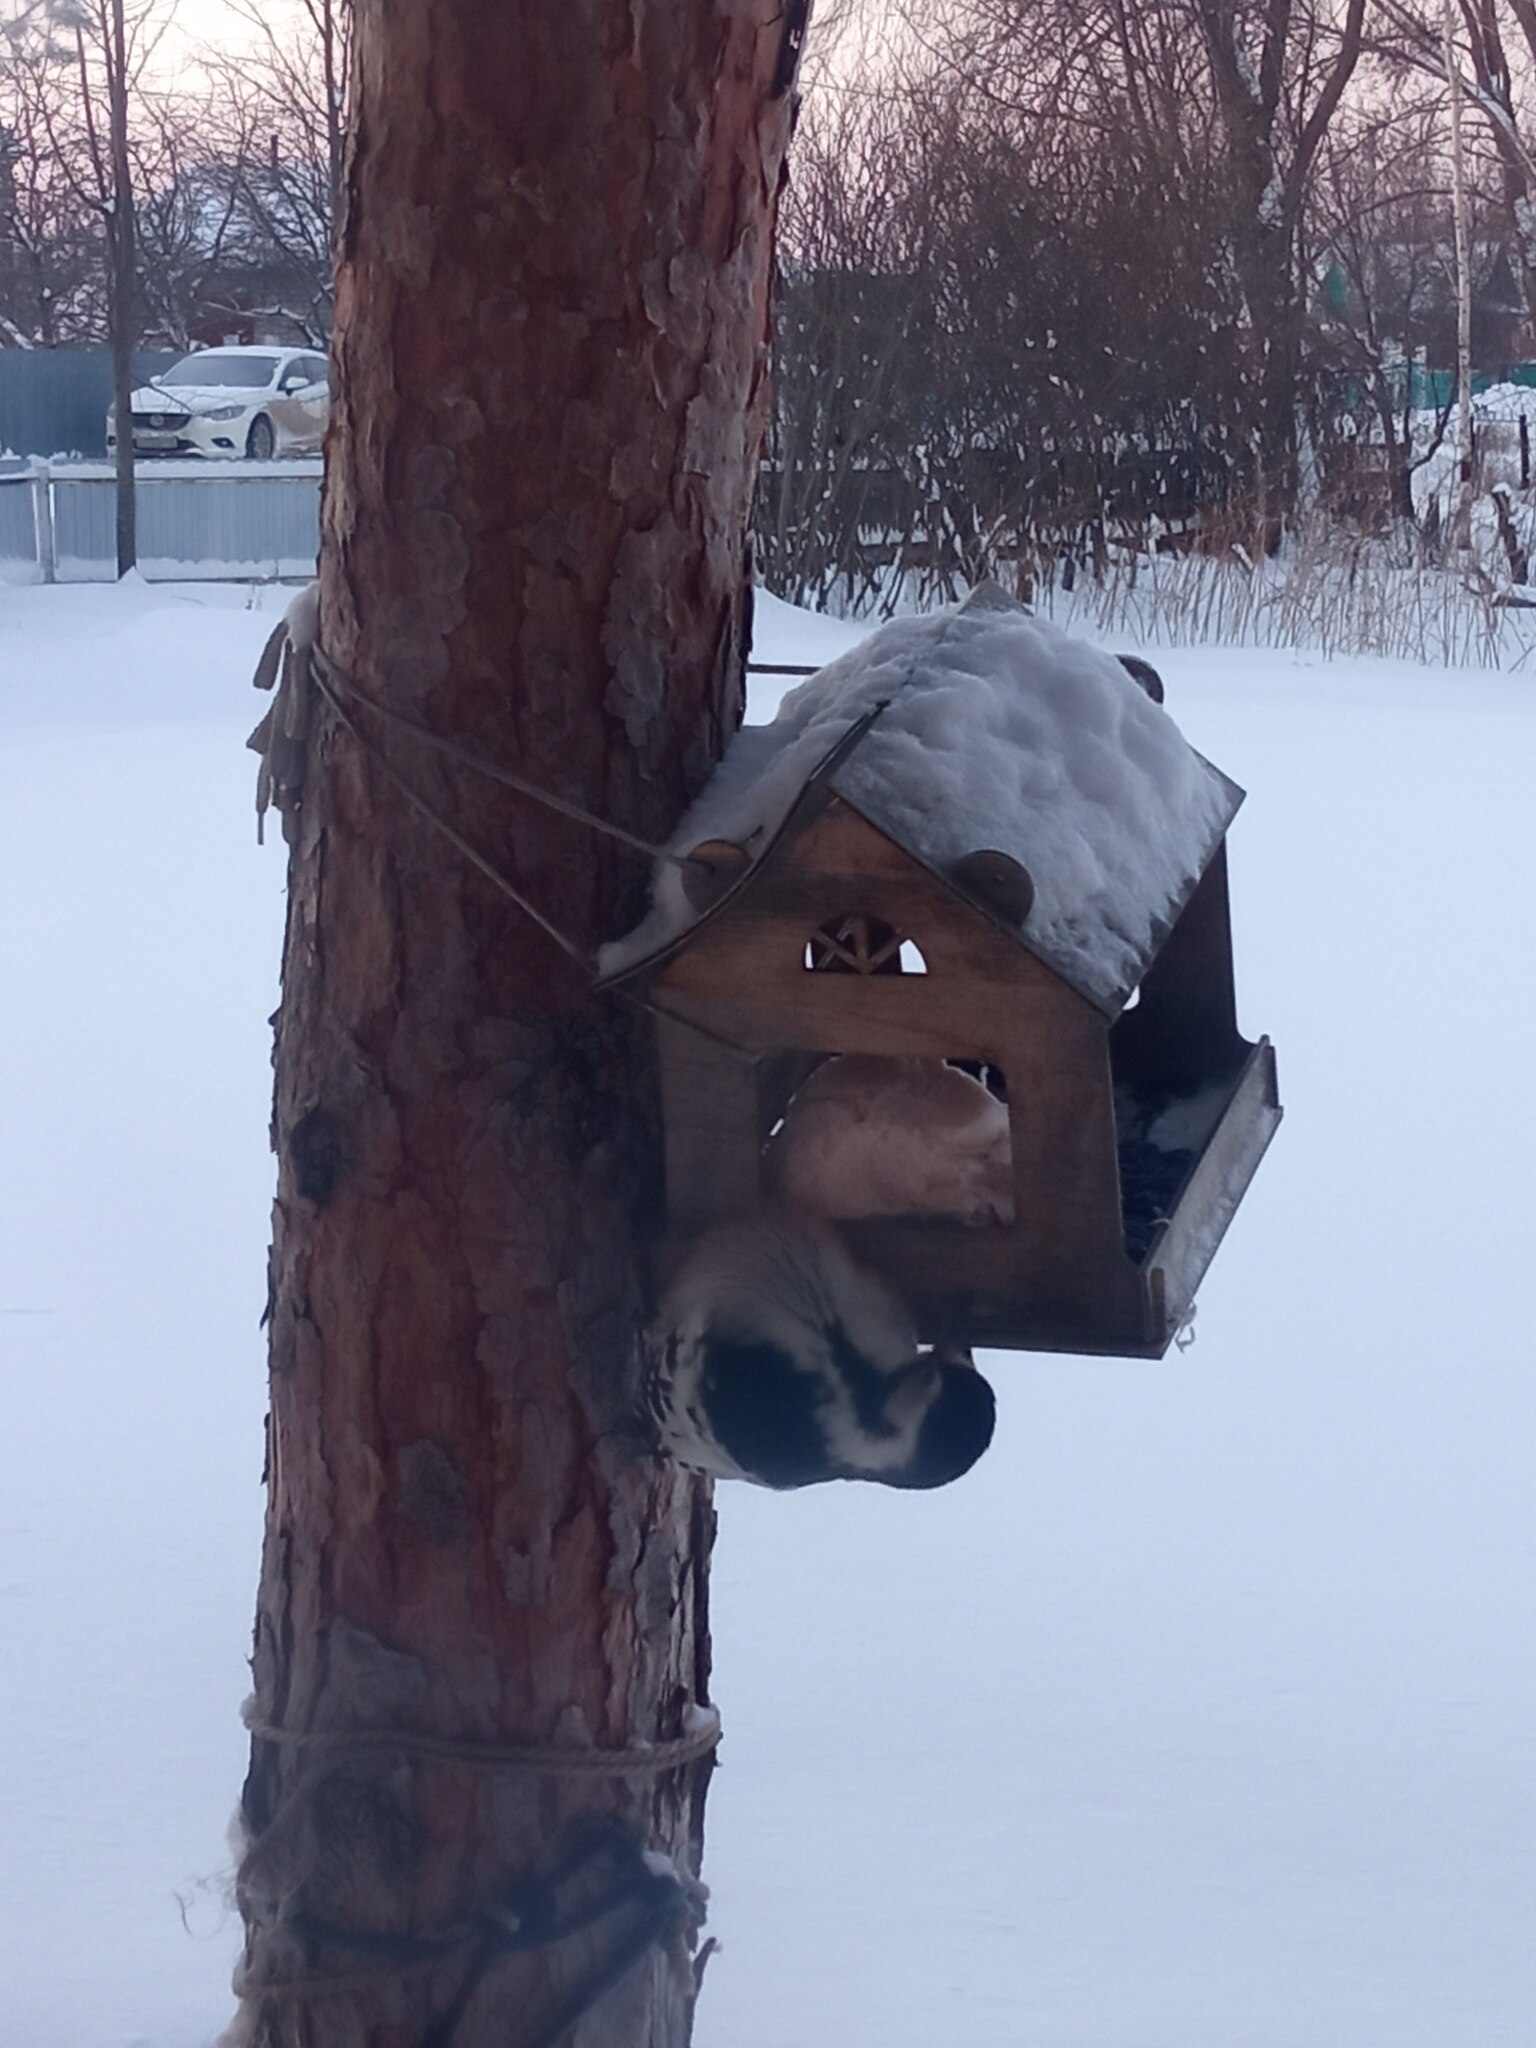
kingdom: Animalia
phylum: Chordata
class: Aves
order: Piciformes
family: Picidae
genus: Dendrocopos
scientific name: Dendrocopos leucotos
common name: White-backed woodpecker
